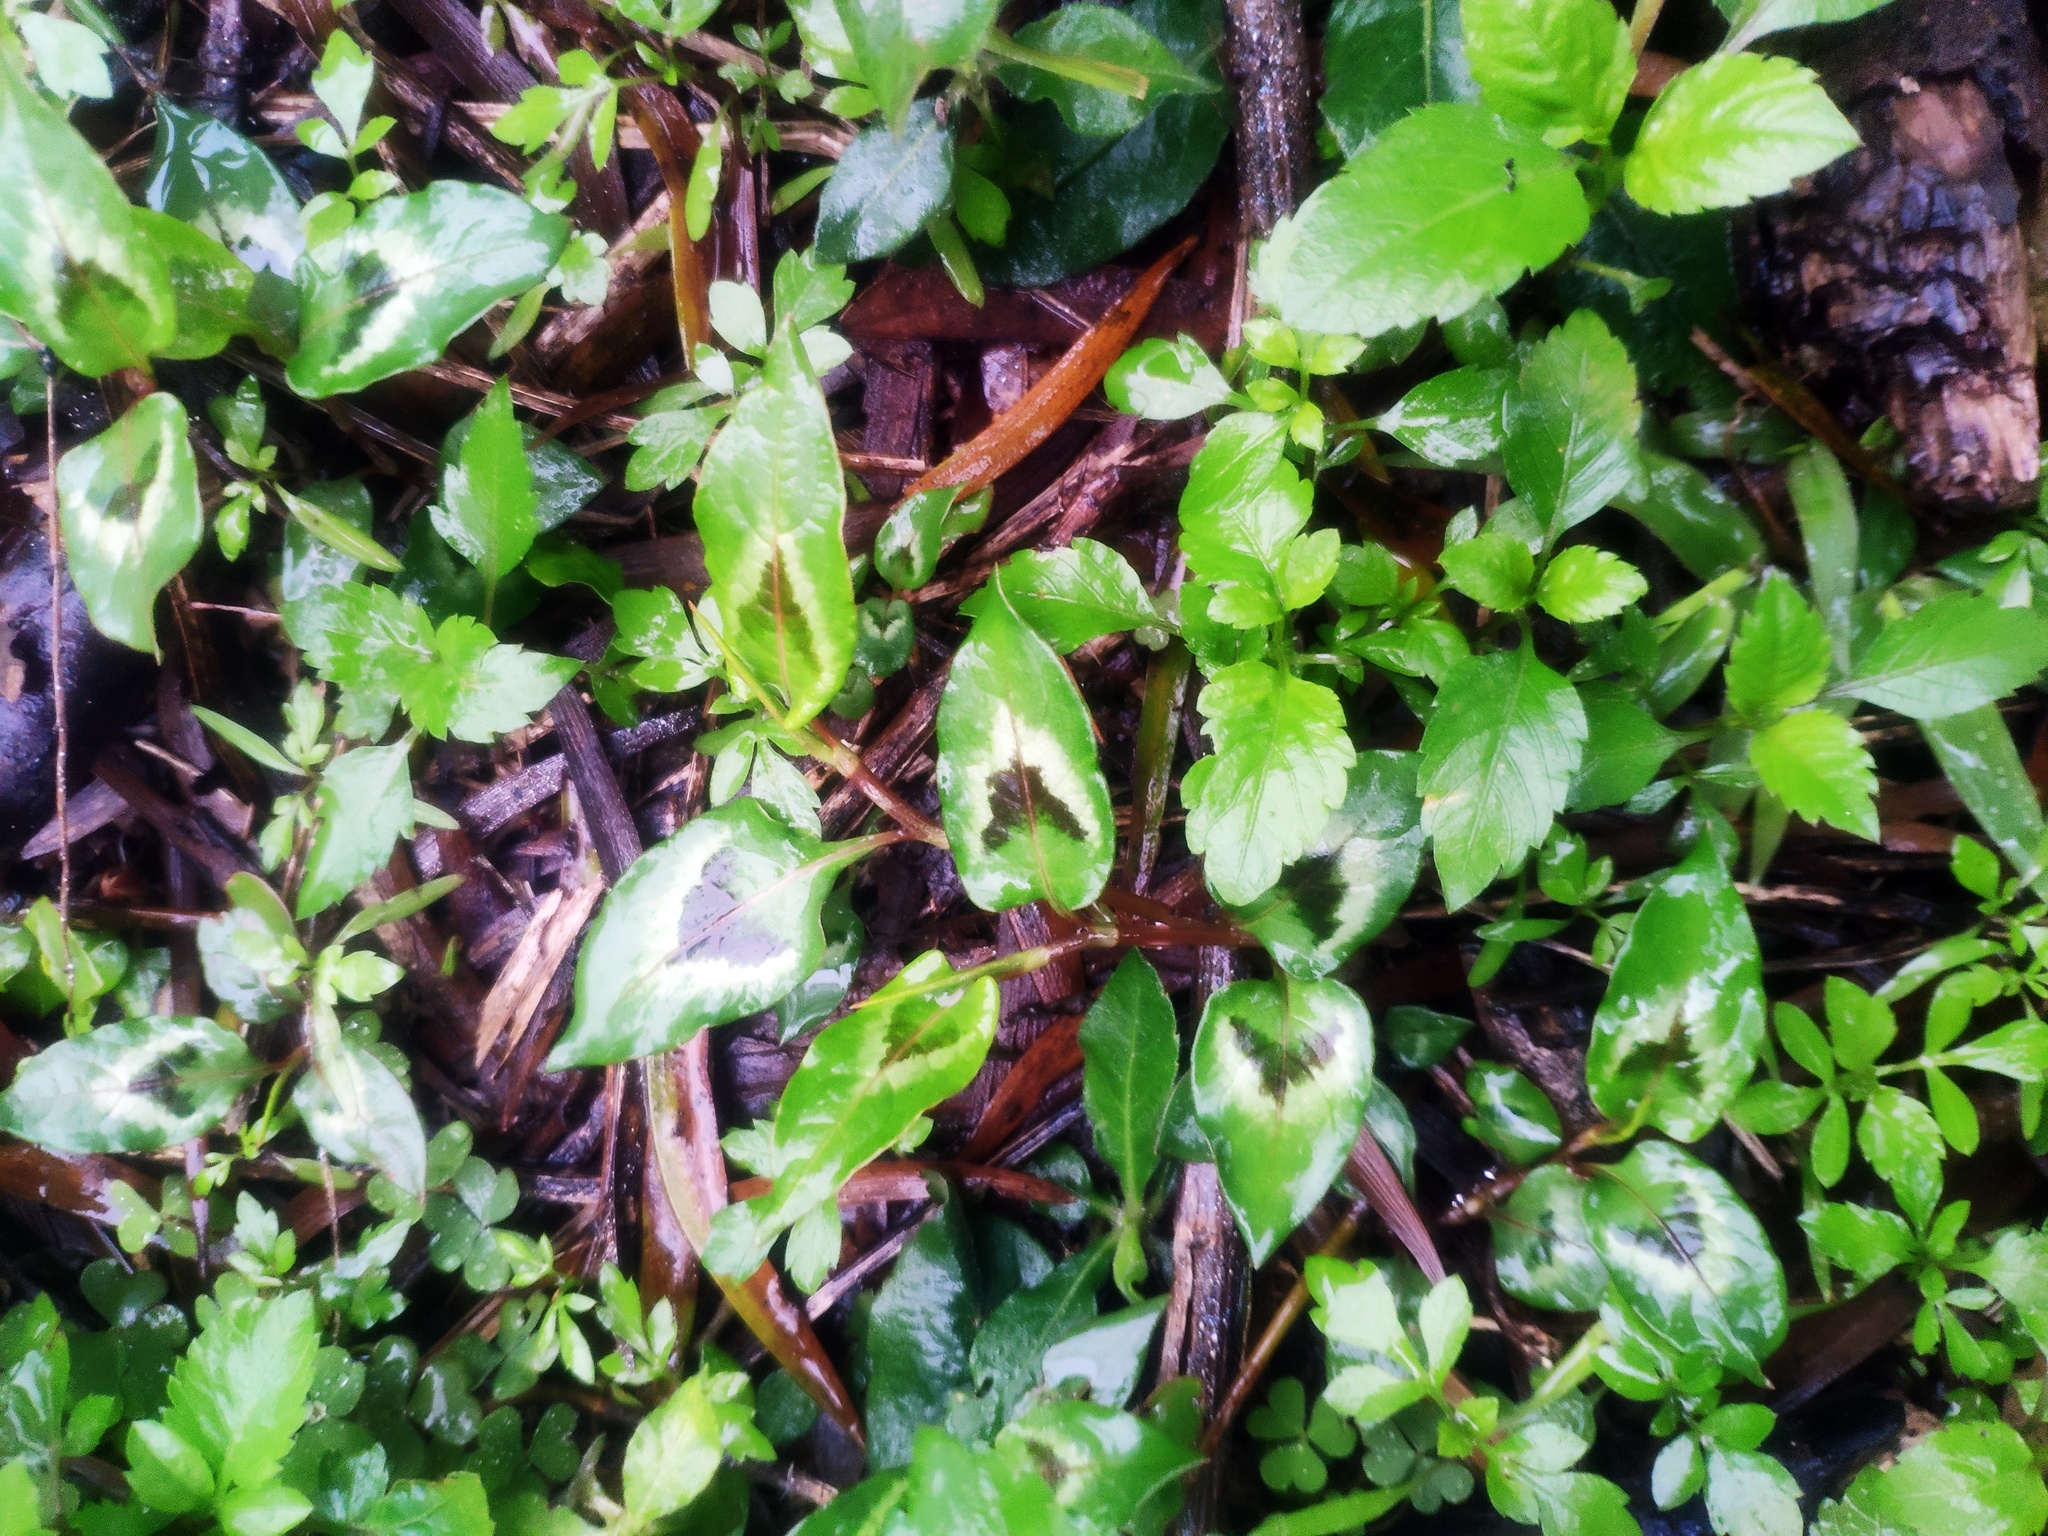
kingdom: Plantae
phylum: Tracheophyta
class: Magnoliopsida
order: Caryophyllales
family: Polygonaceae
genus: Persicaria
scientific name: Persicaria chinensis
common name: Chinese knotweed
